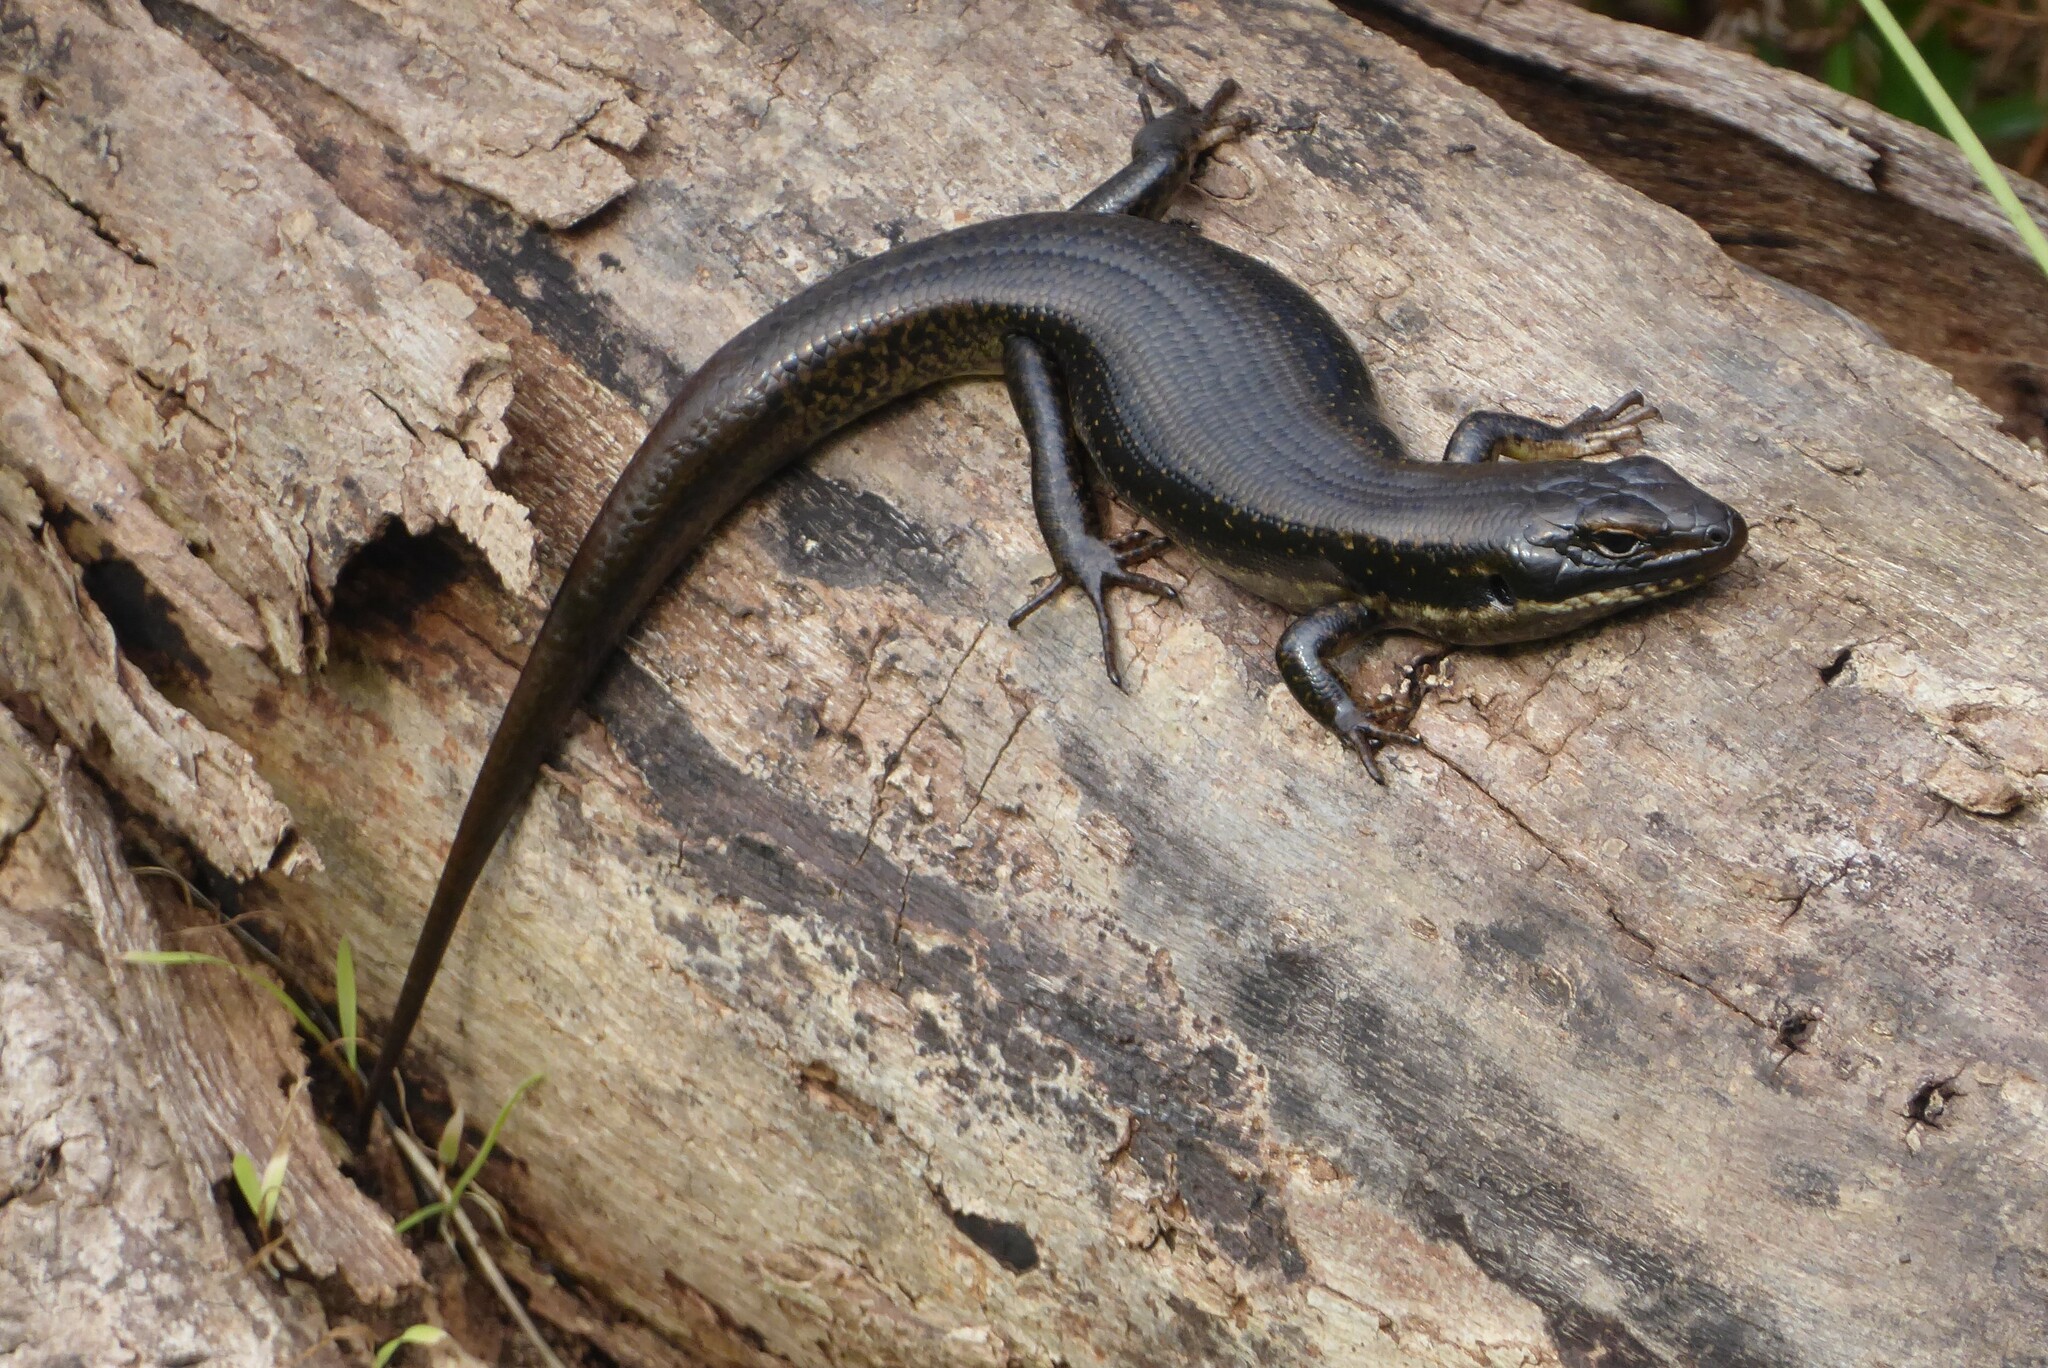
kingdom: Animalia
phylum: Chordata
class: Squamata
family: Scincidae
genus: Eulamprus
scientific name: Eulamprus tympanum
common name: Cool-temperate water-skink
